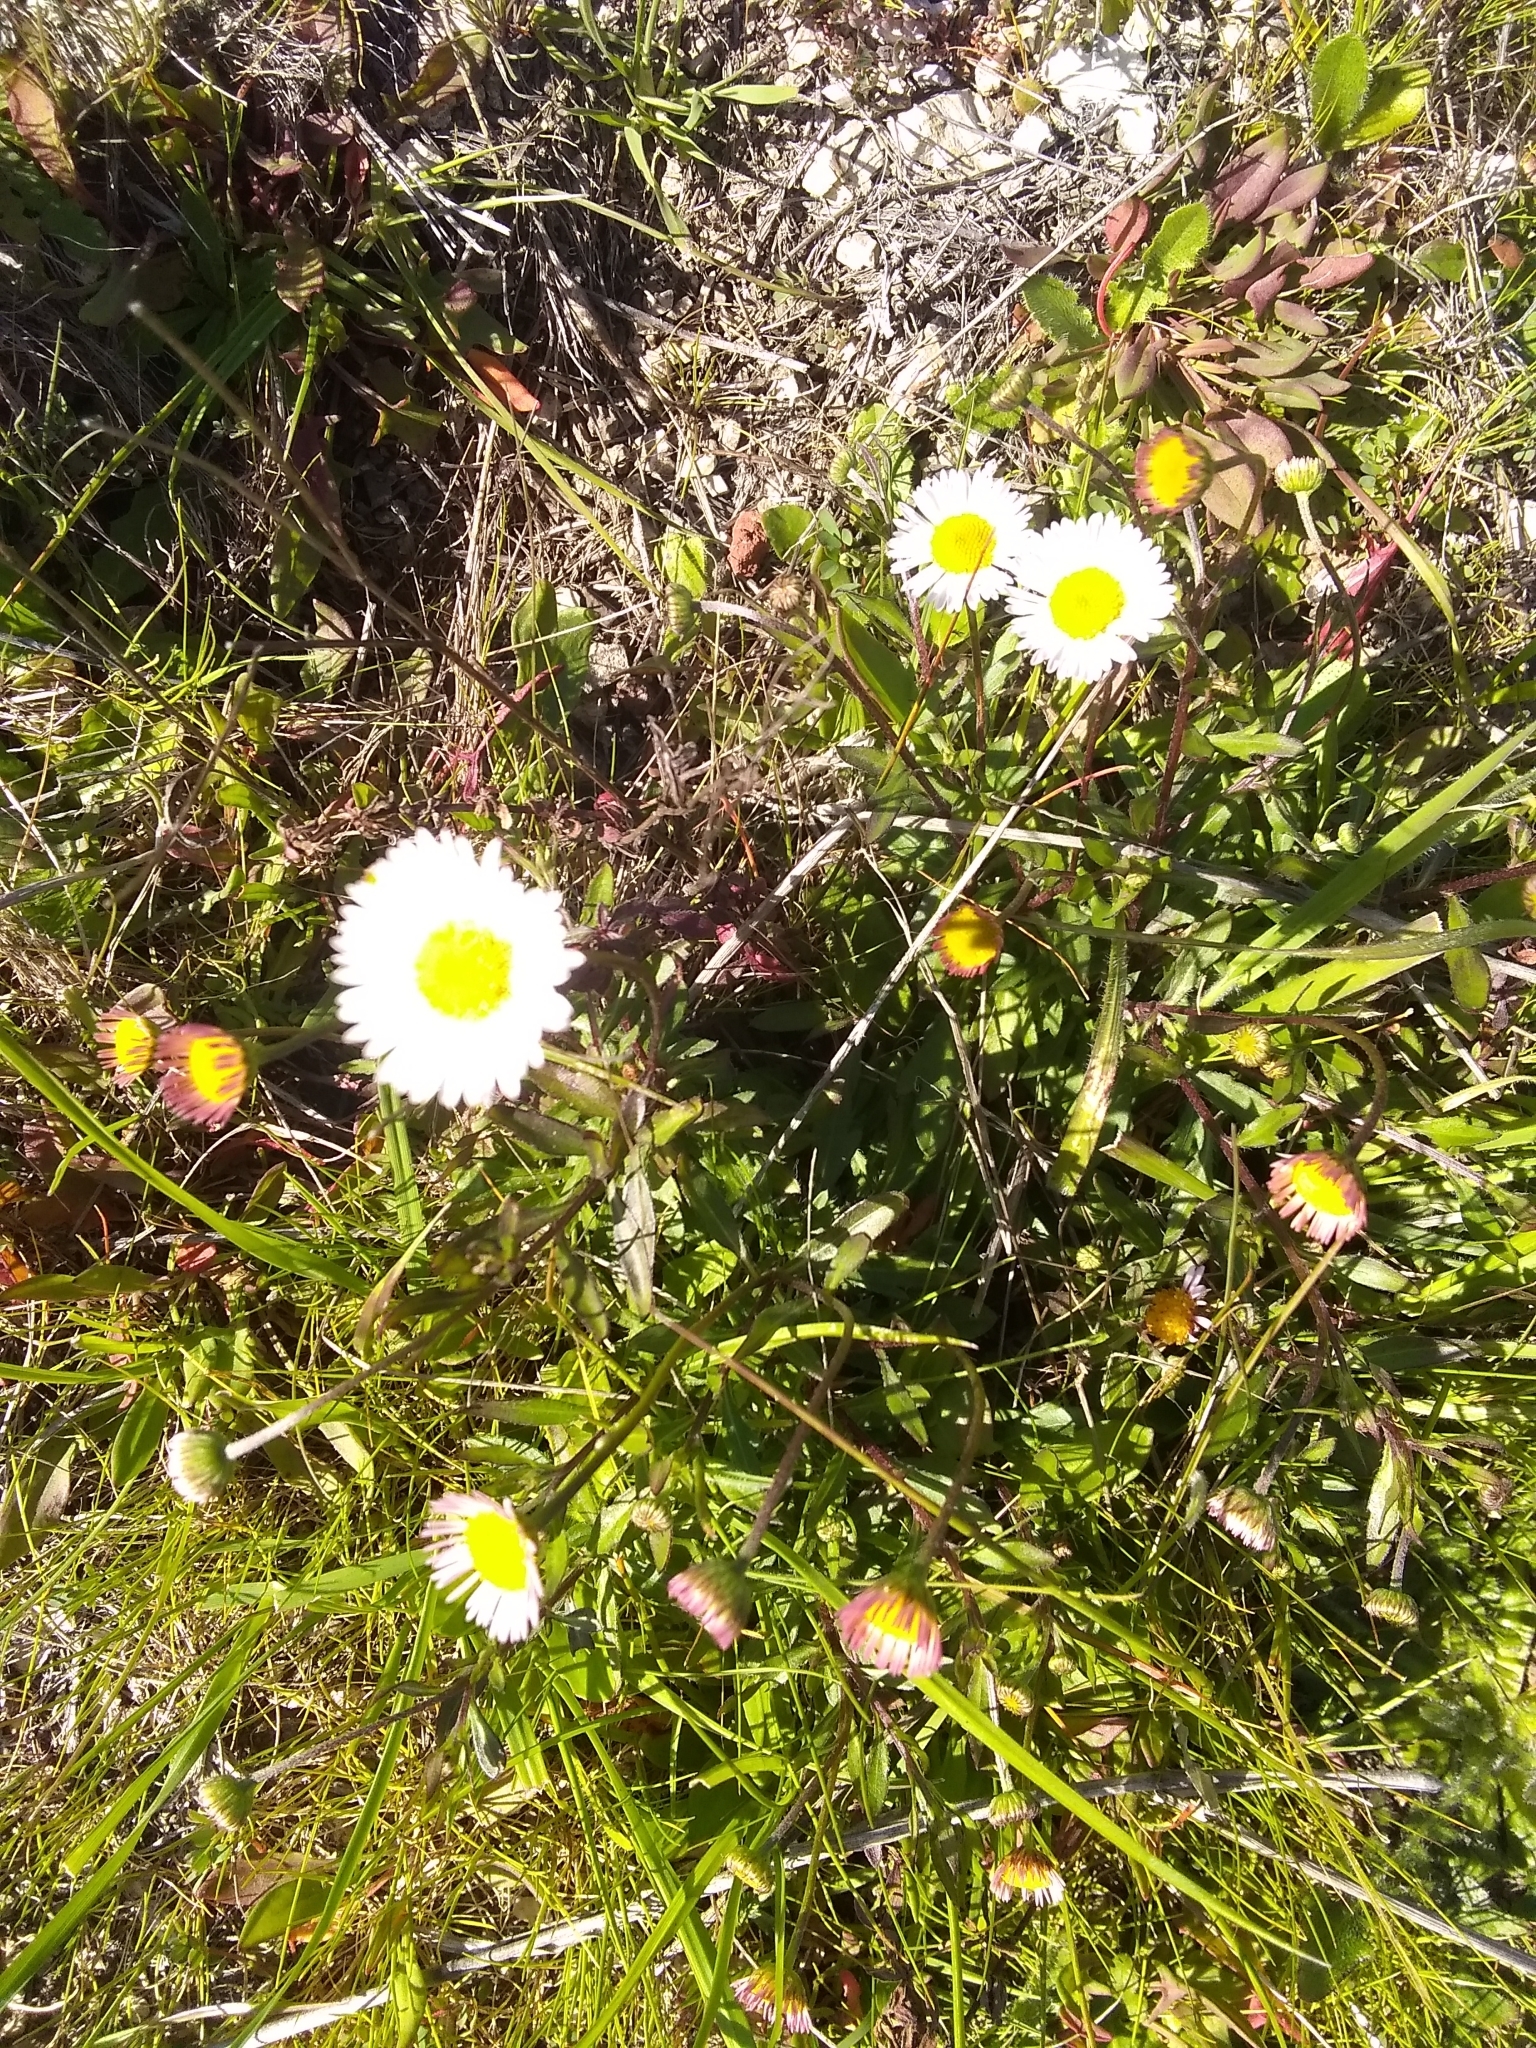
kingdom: Plantae
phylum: Tracheophyta
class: Magnoliopsida
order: Asterales
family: Asteraceae
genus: Erigeron
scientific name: Erigeron karvinskianus
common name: Mexican fleabane
